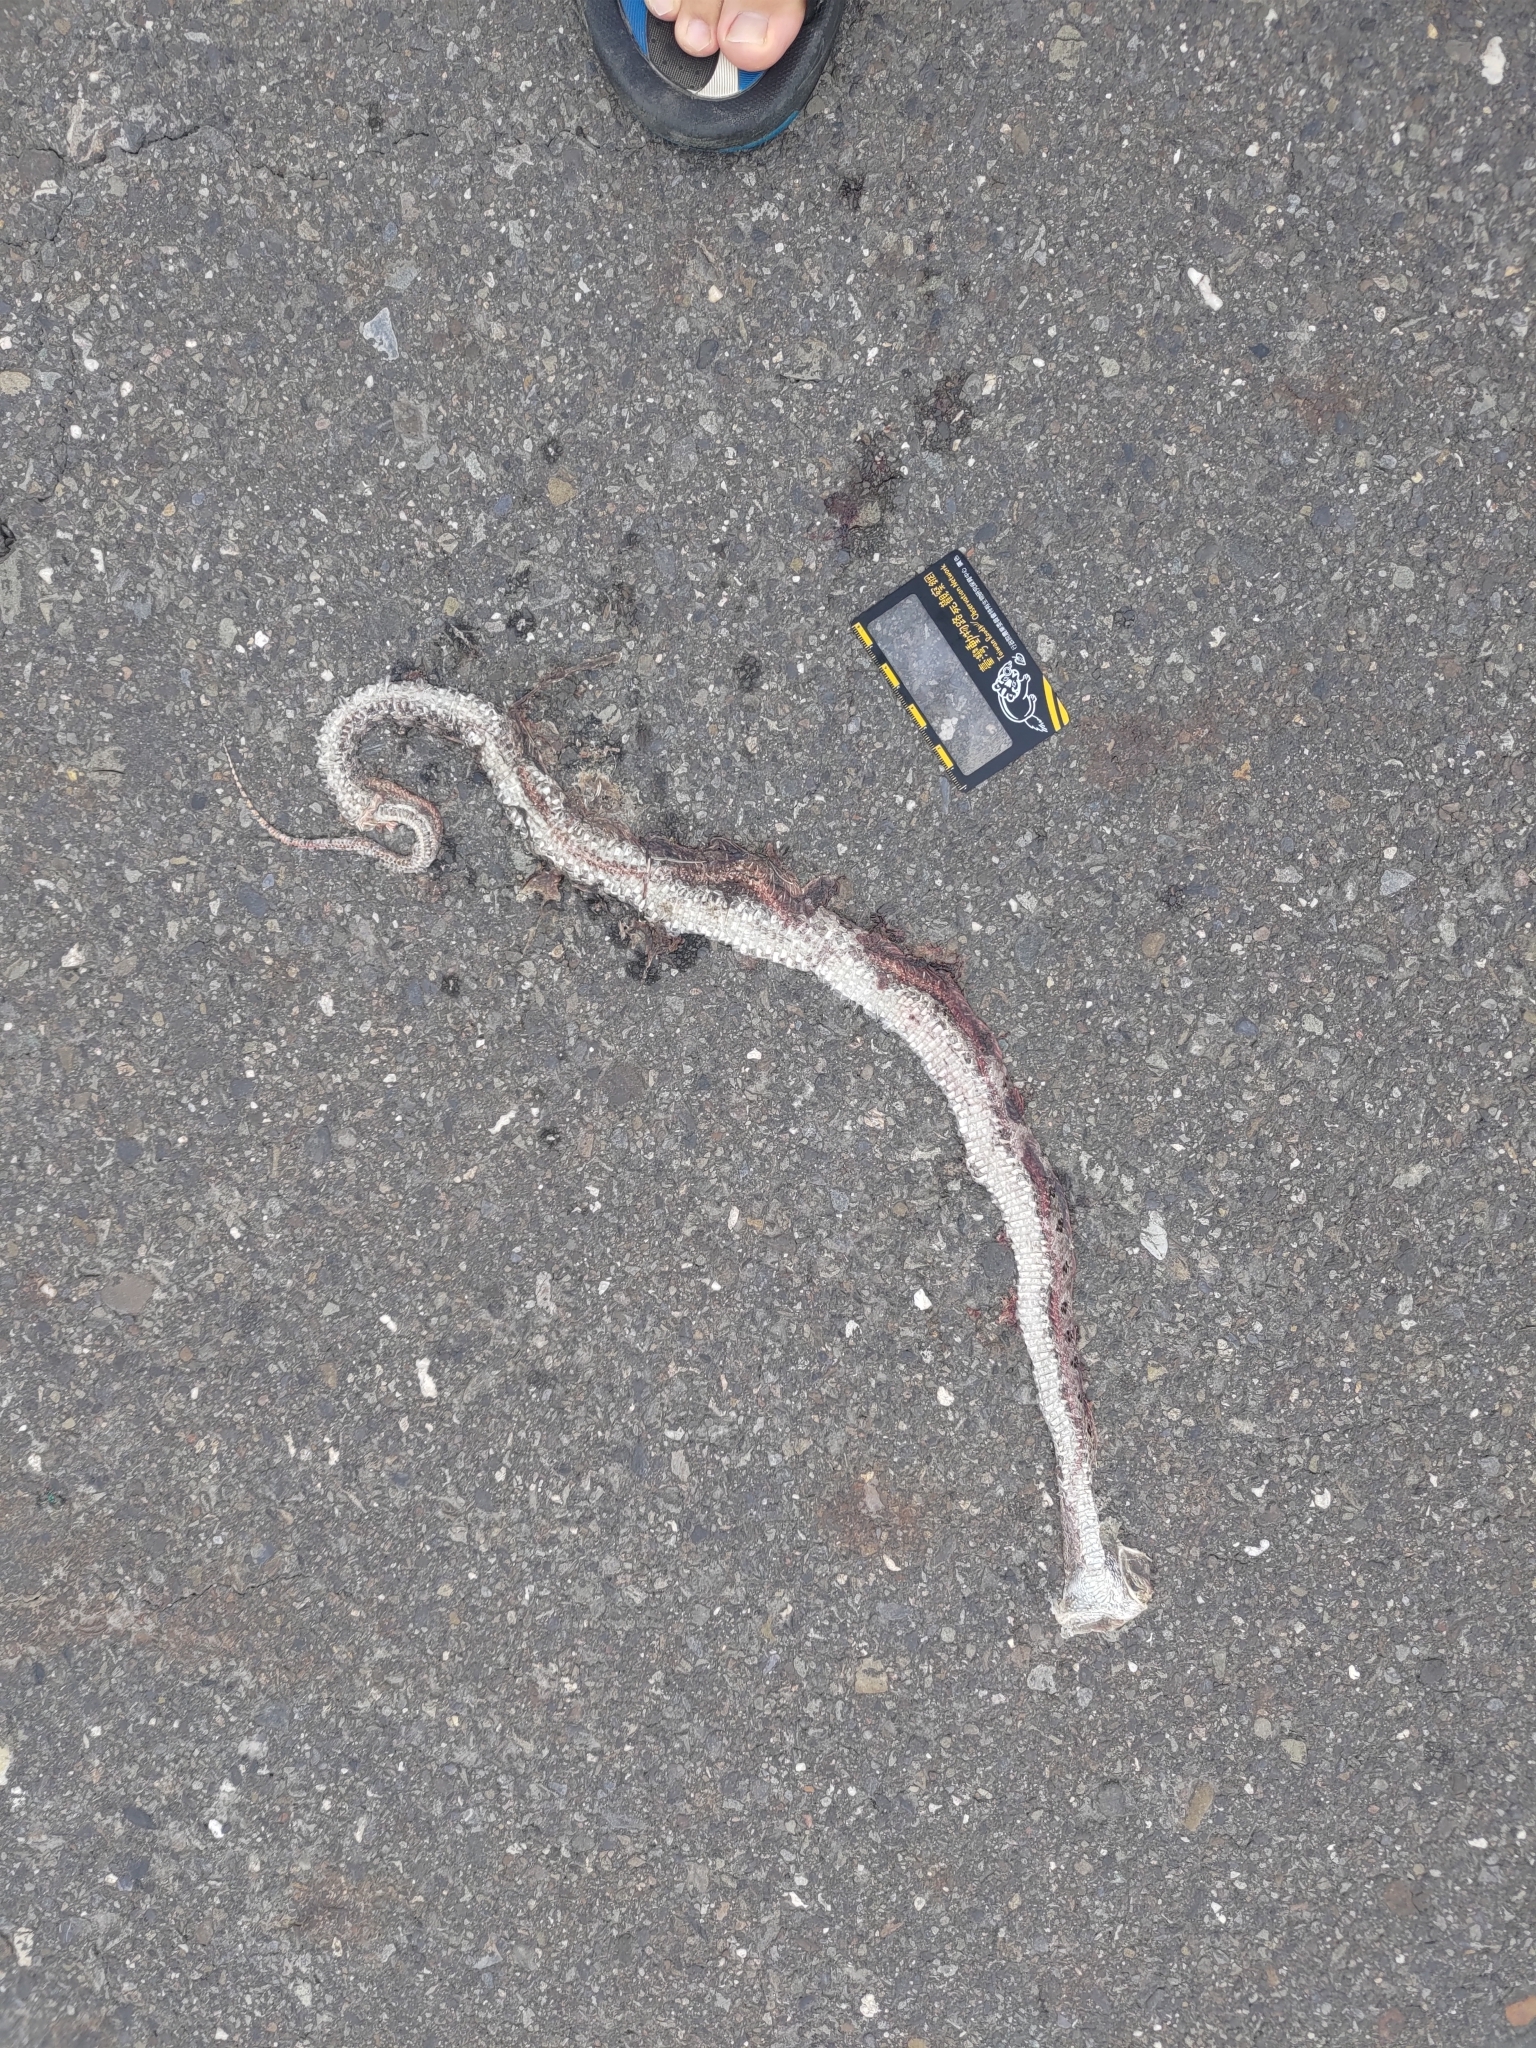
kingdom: Animalia
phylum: Chordata
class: Squamata
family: Viperidae
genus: Protobothrops
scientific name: Protobothrops mucrosquamatus
